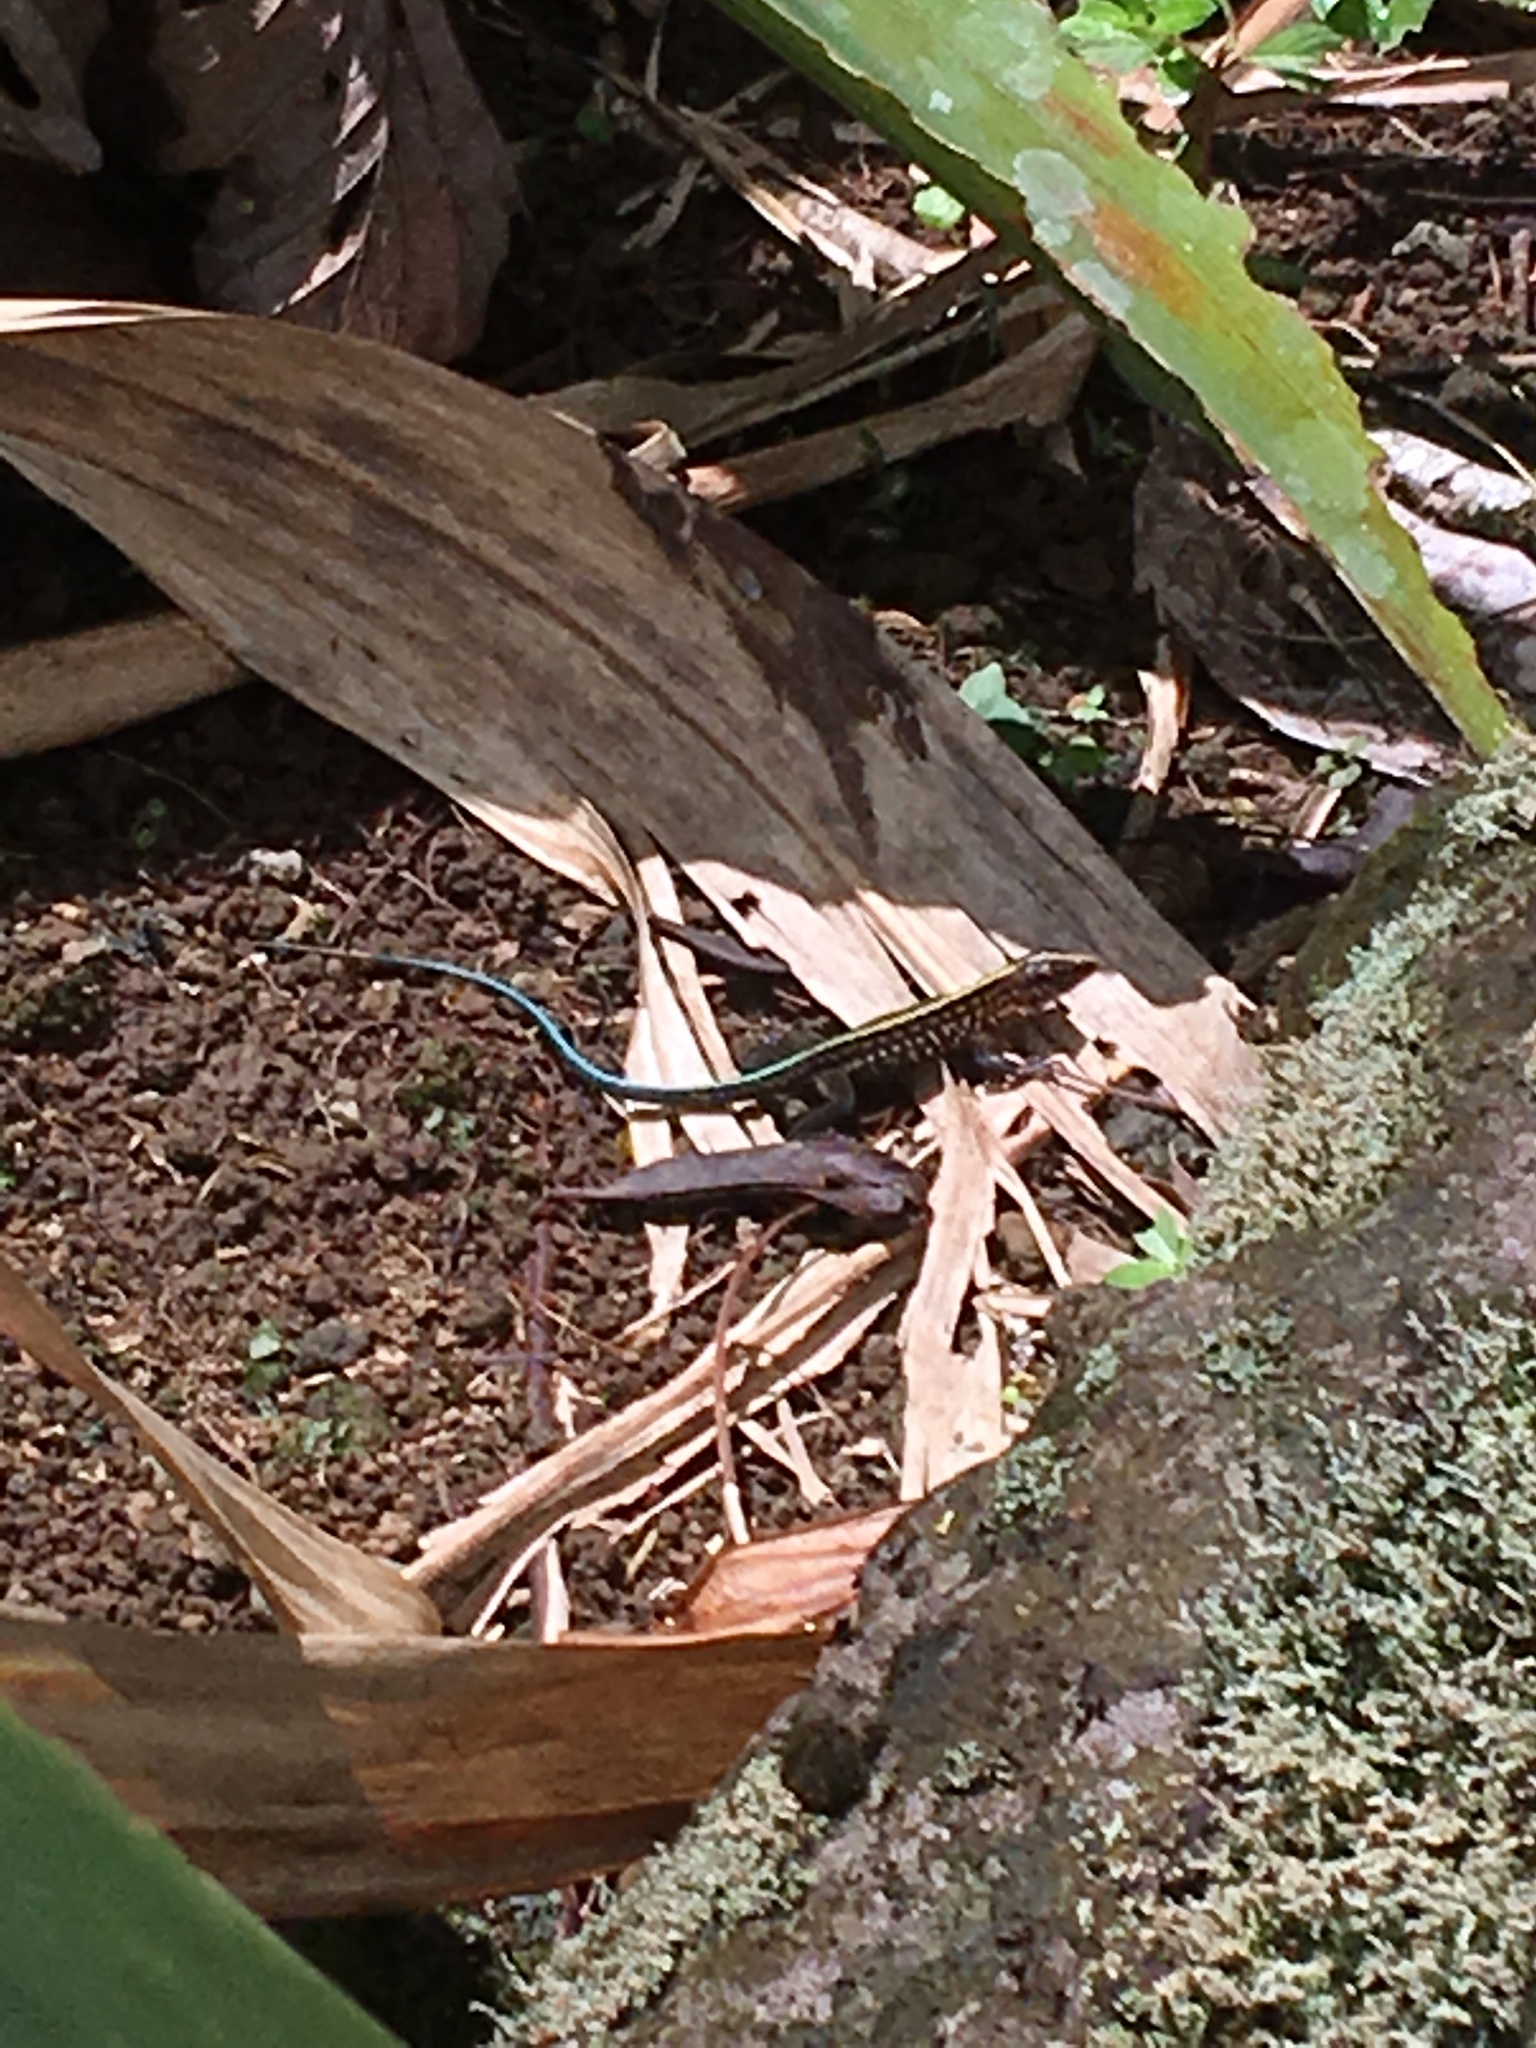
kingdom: Animalia
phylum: Chordata
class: Squamata
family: Teiidae
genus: Holcosus
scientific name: Holcosus festivus
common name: Middle american ameiva
